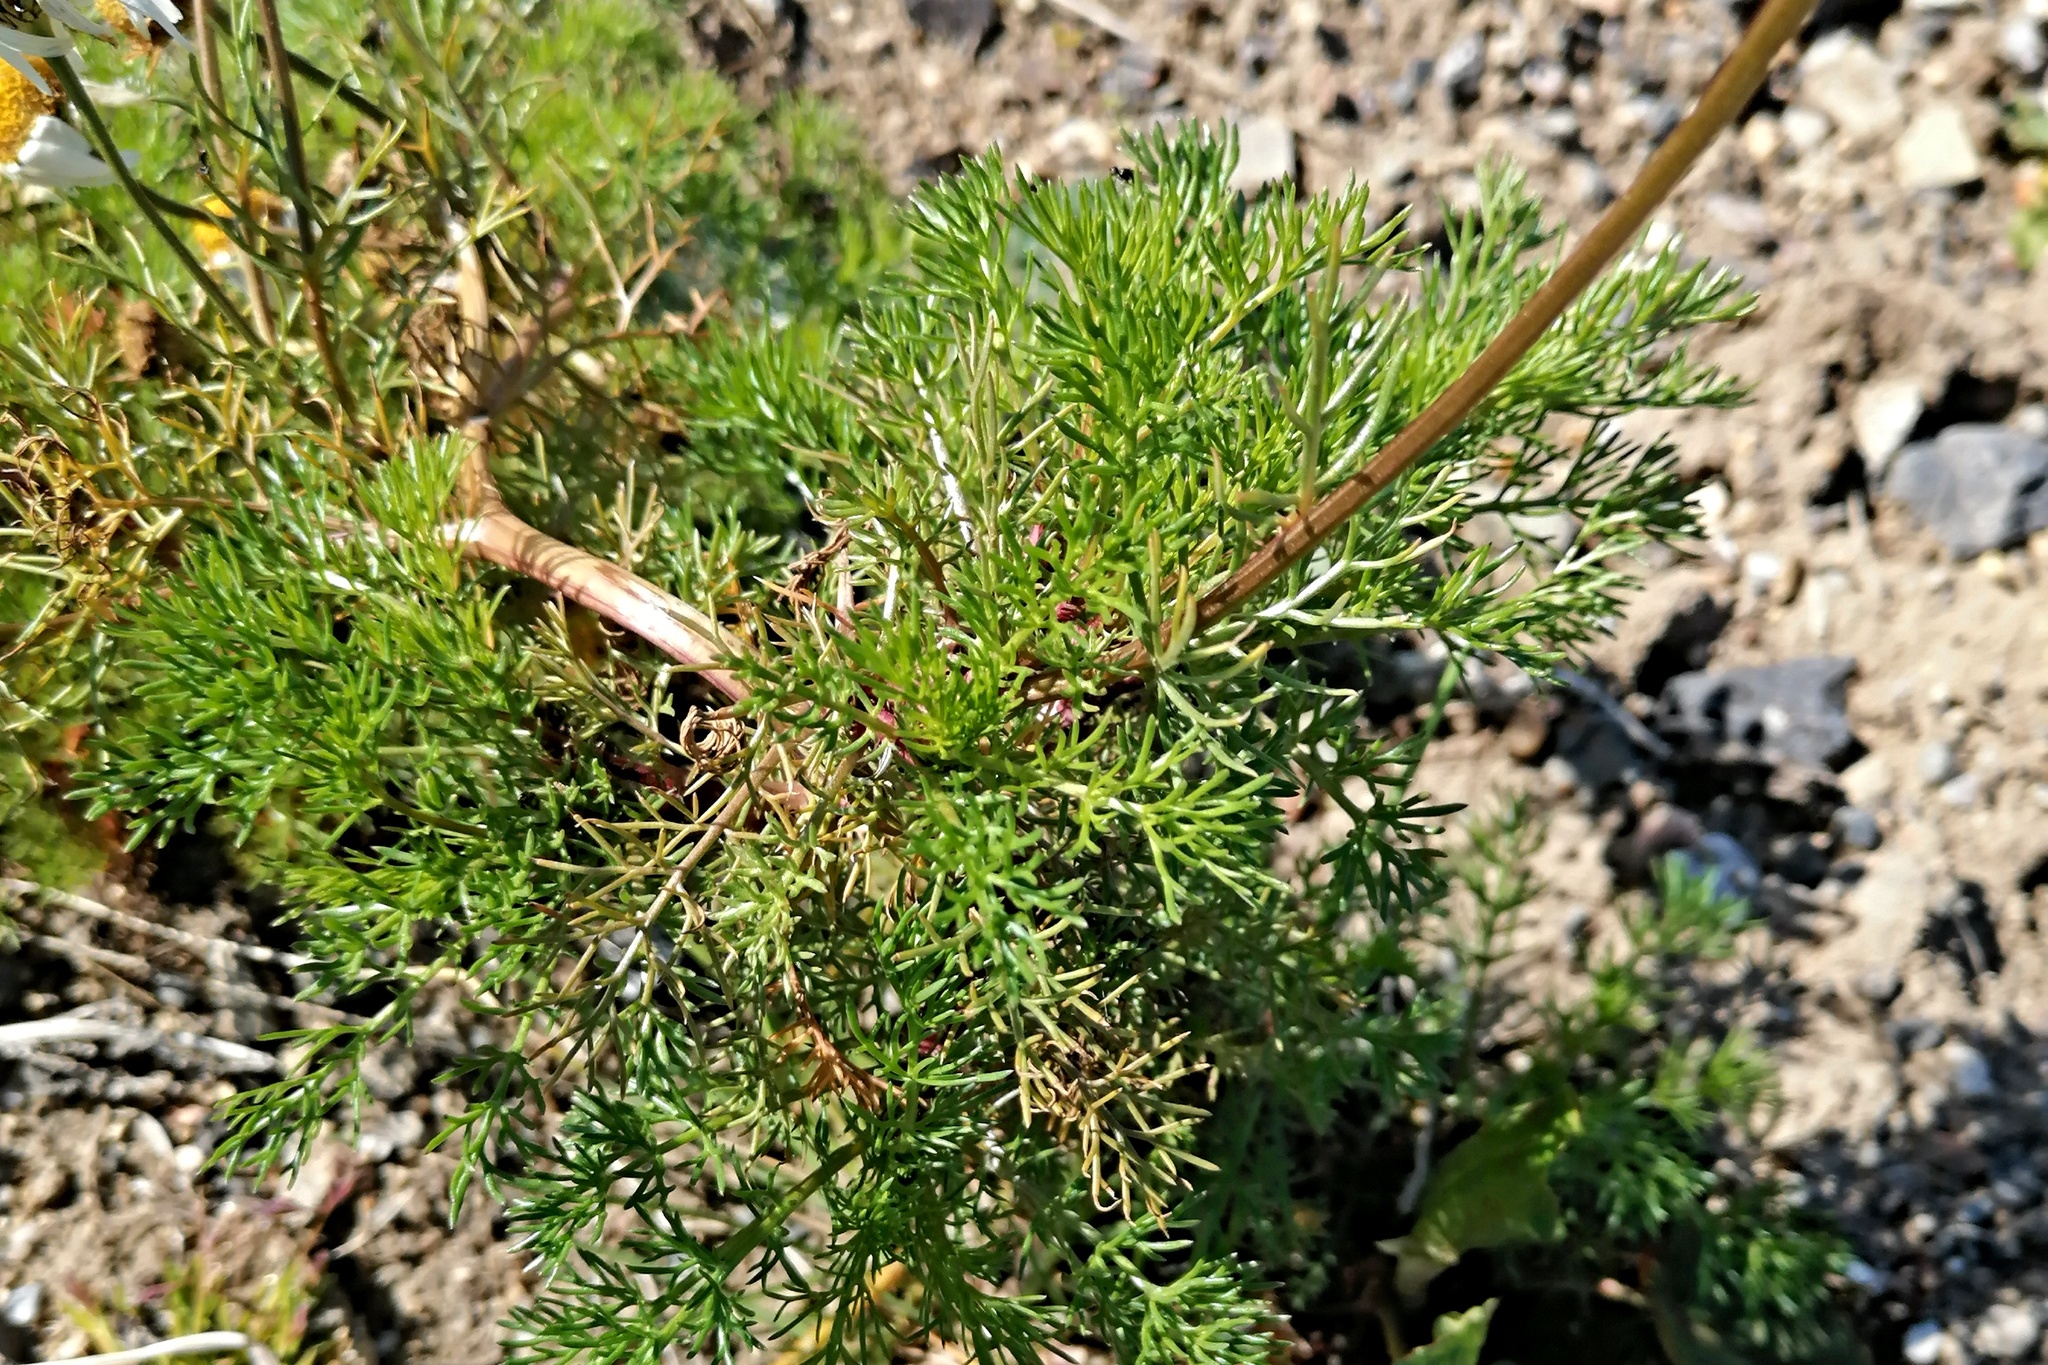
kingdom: Plantae
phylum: Tracheophyta
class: Magnoliopsida
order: Asterales
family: Asteraceae
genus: Tripleurospermum
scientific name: Tripleurospermum inodorum
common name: Scentless mayweed
